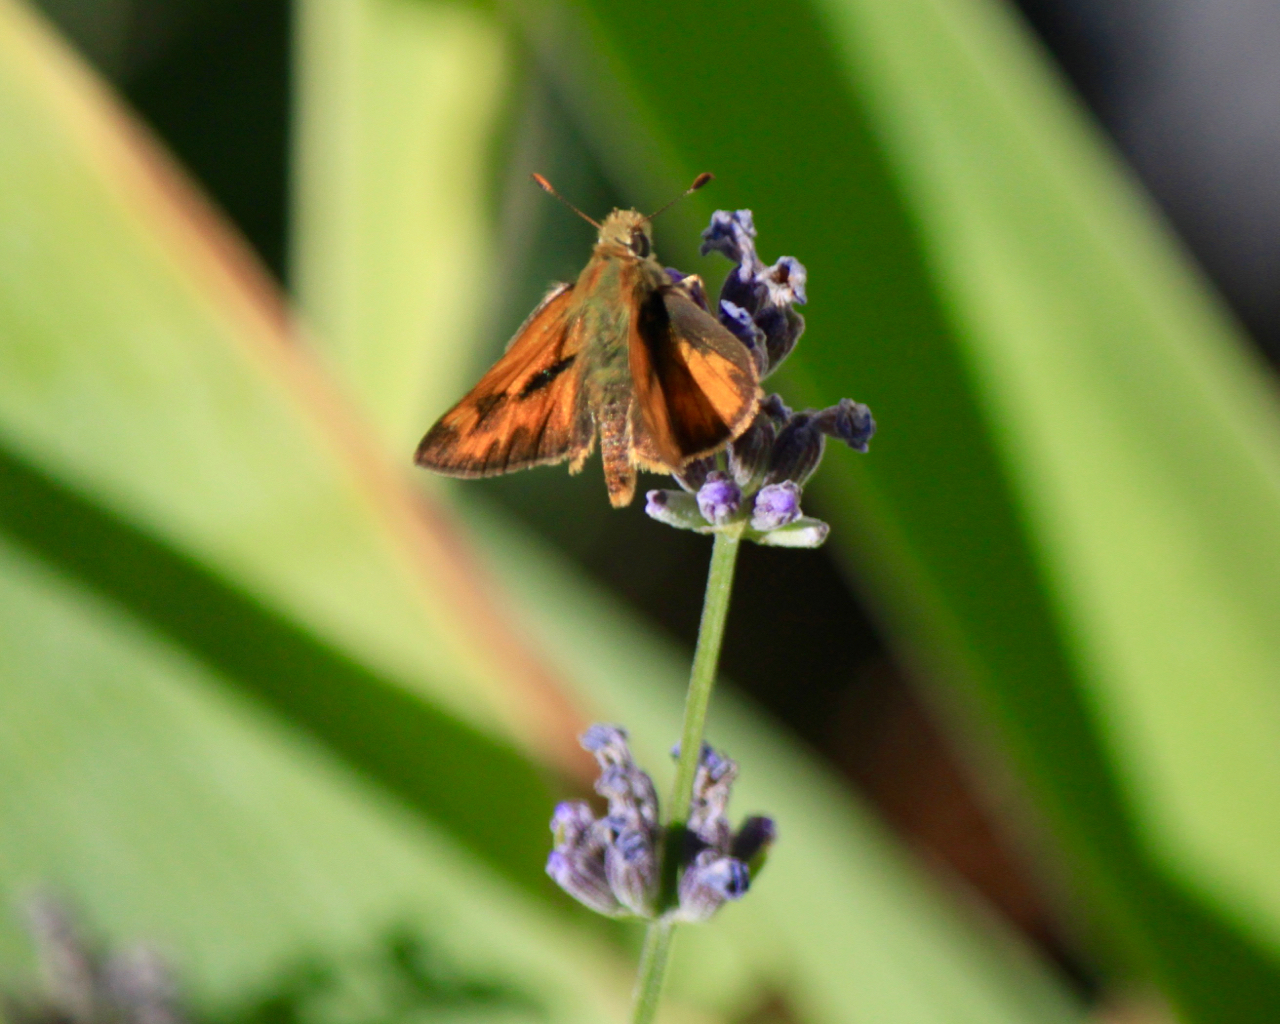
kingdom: Animalia
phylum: Arthropoda
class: Insecta
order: Lepidoptera
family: Hesperiidae
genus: Ochlodes
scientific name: Ochlodes sylvanoides
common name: Woodland skipper
